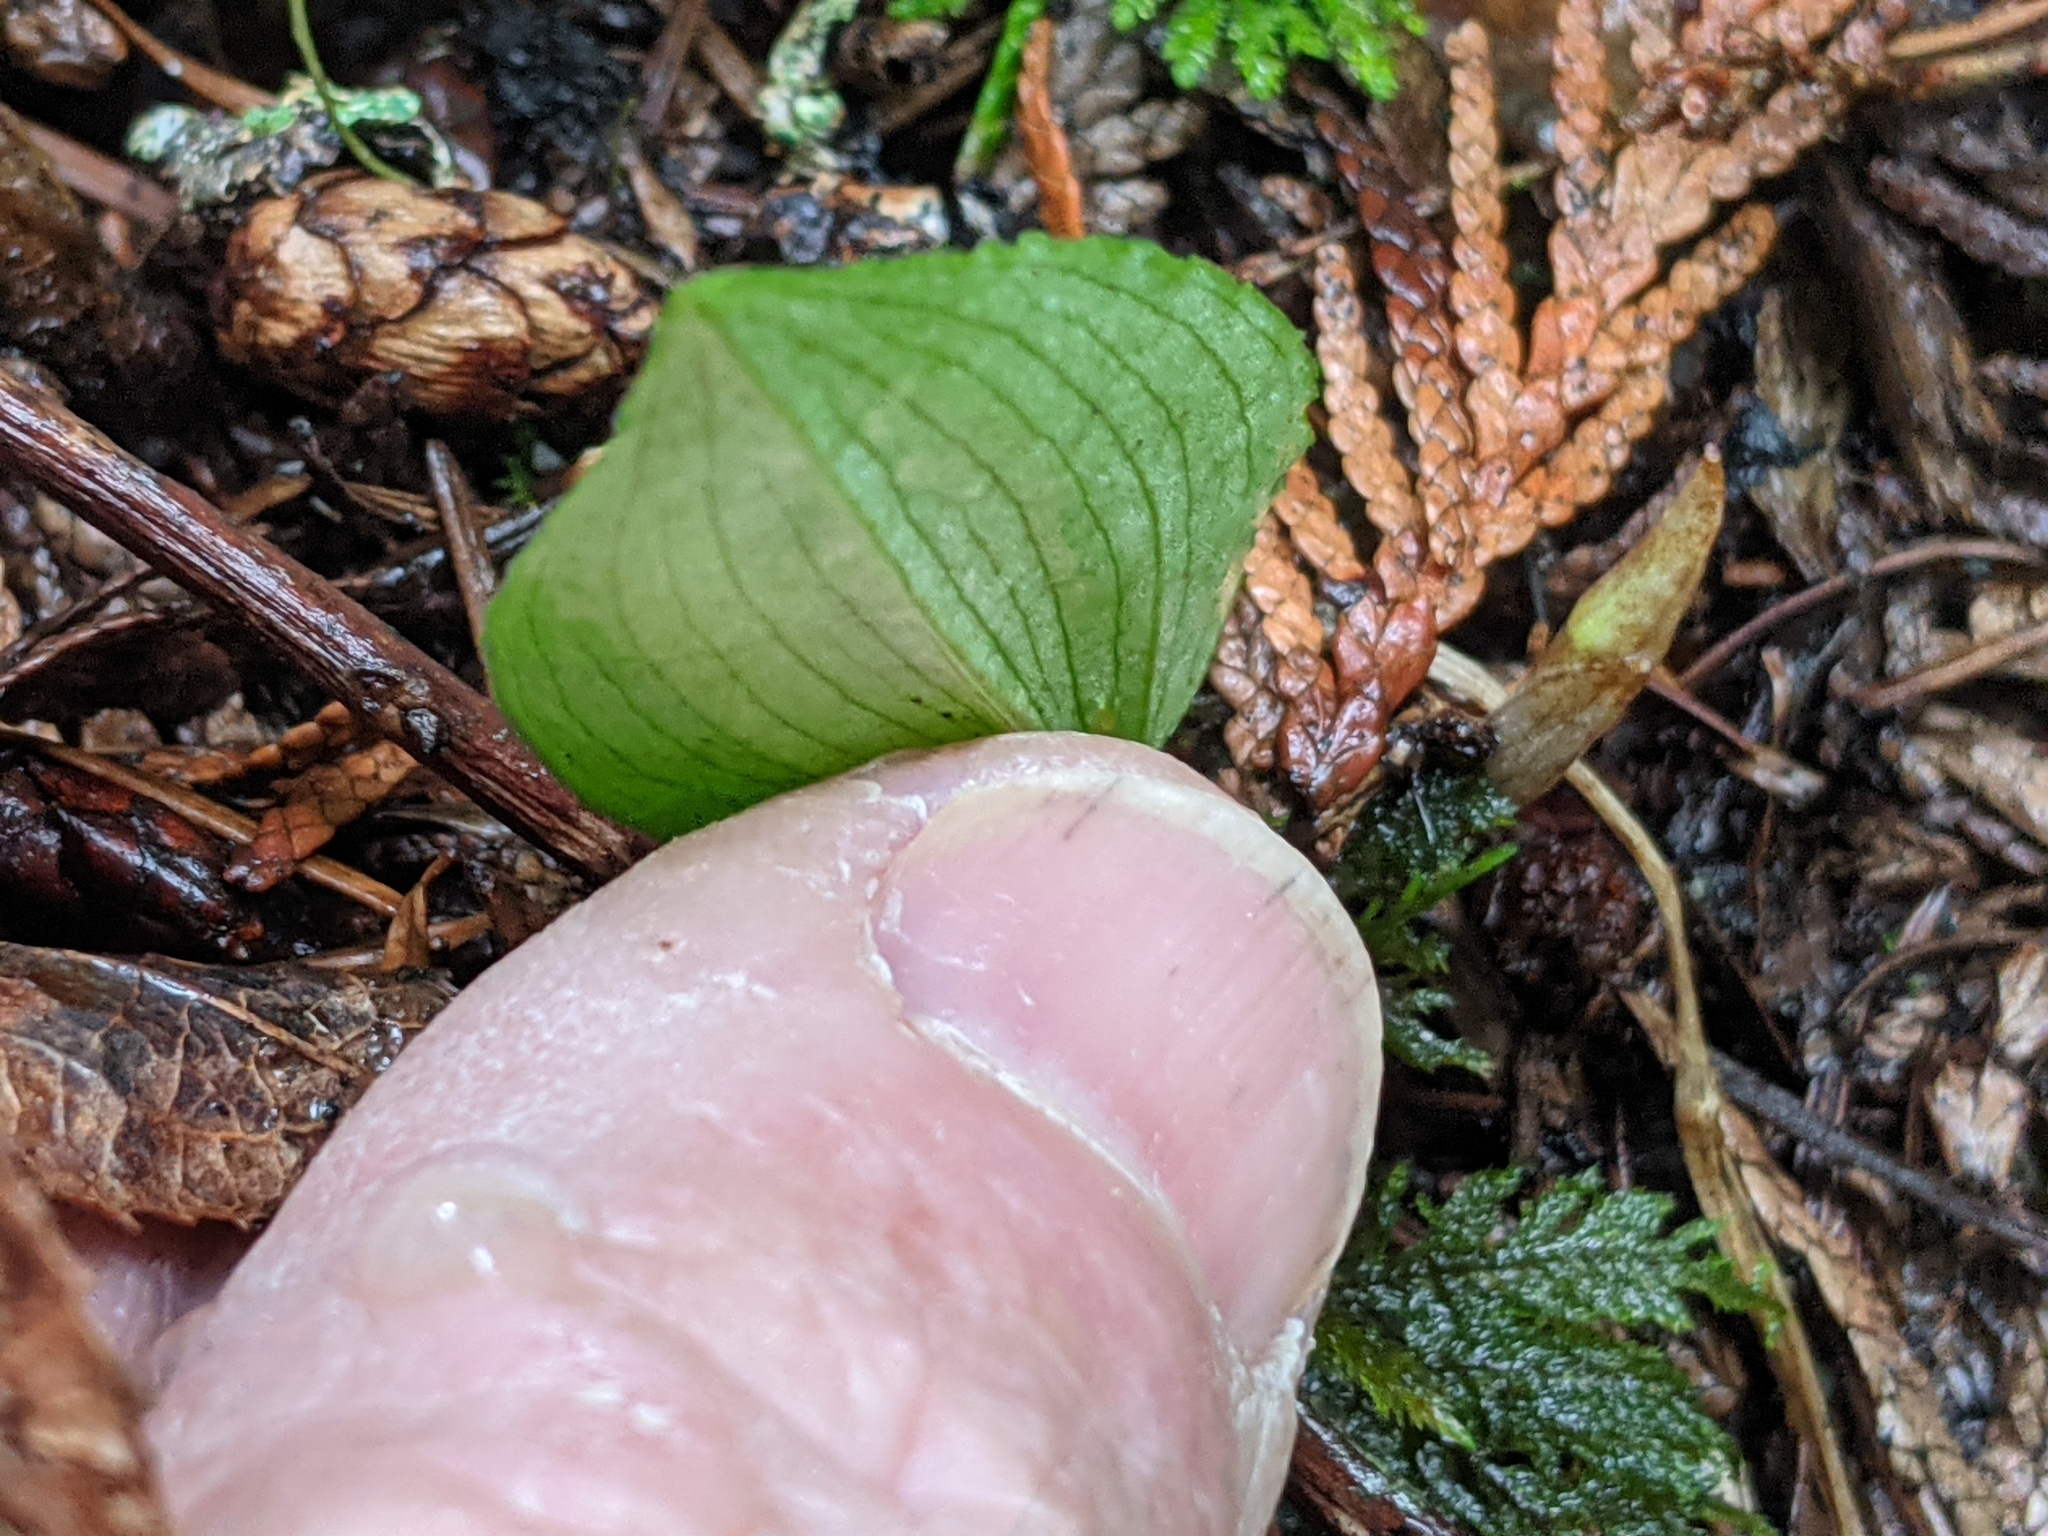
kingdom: Plantae
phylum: Tracheophyta
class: Liliopsida
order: Asparagales
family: Orchidaceae
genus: Calypso
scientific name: Calypso bulbosa
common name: Calypso
